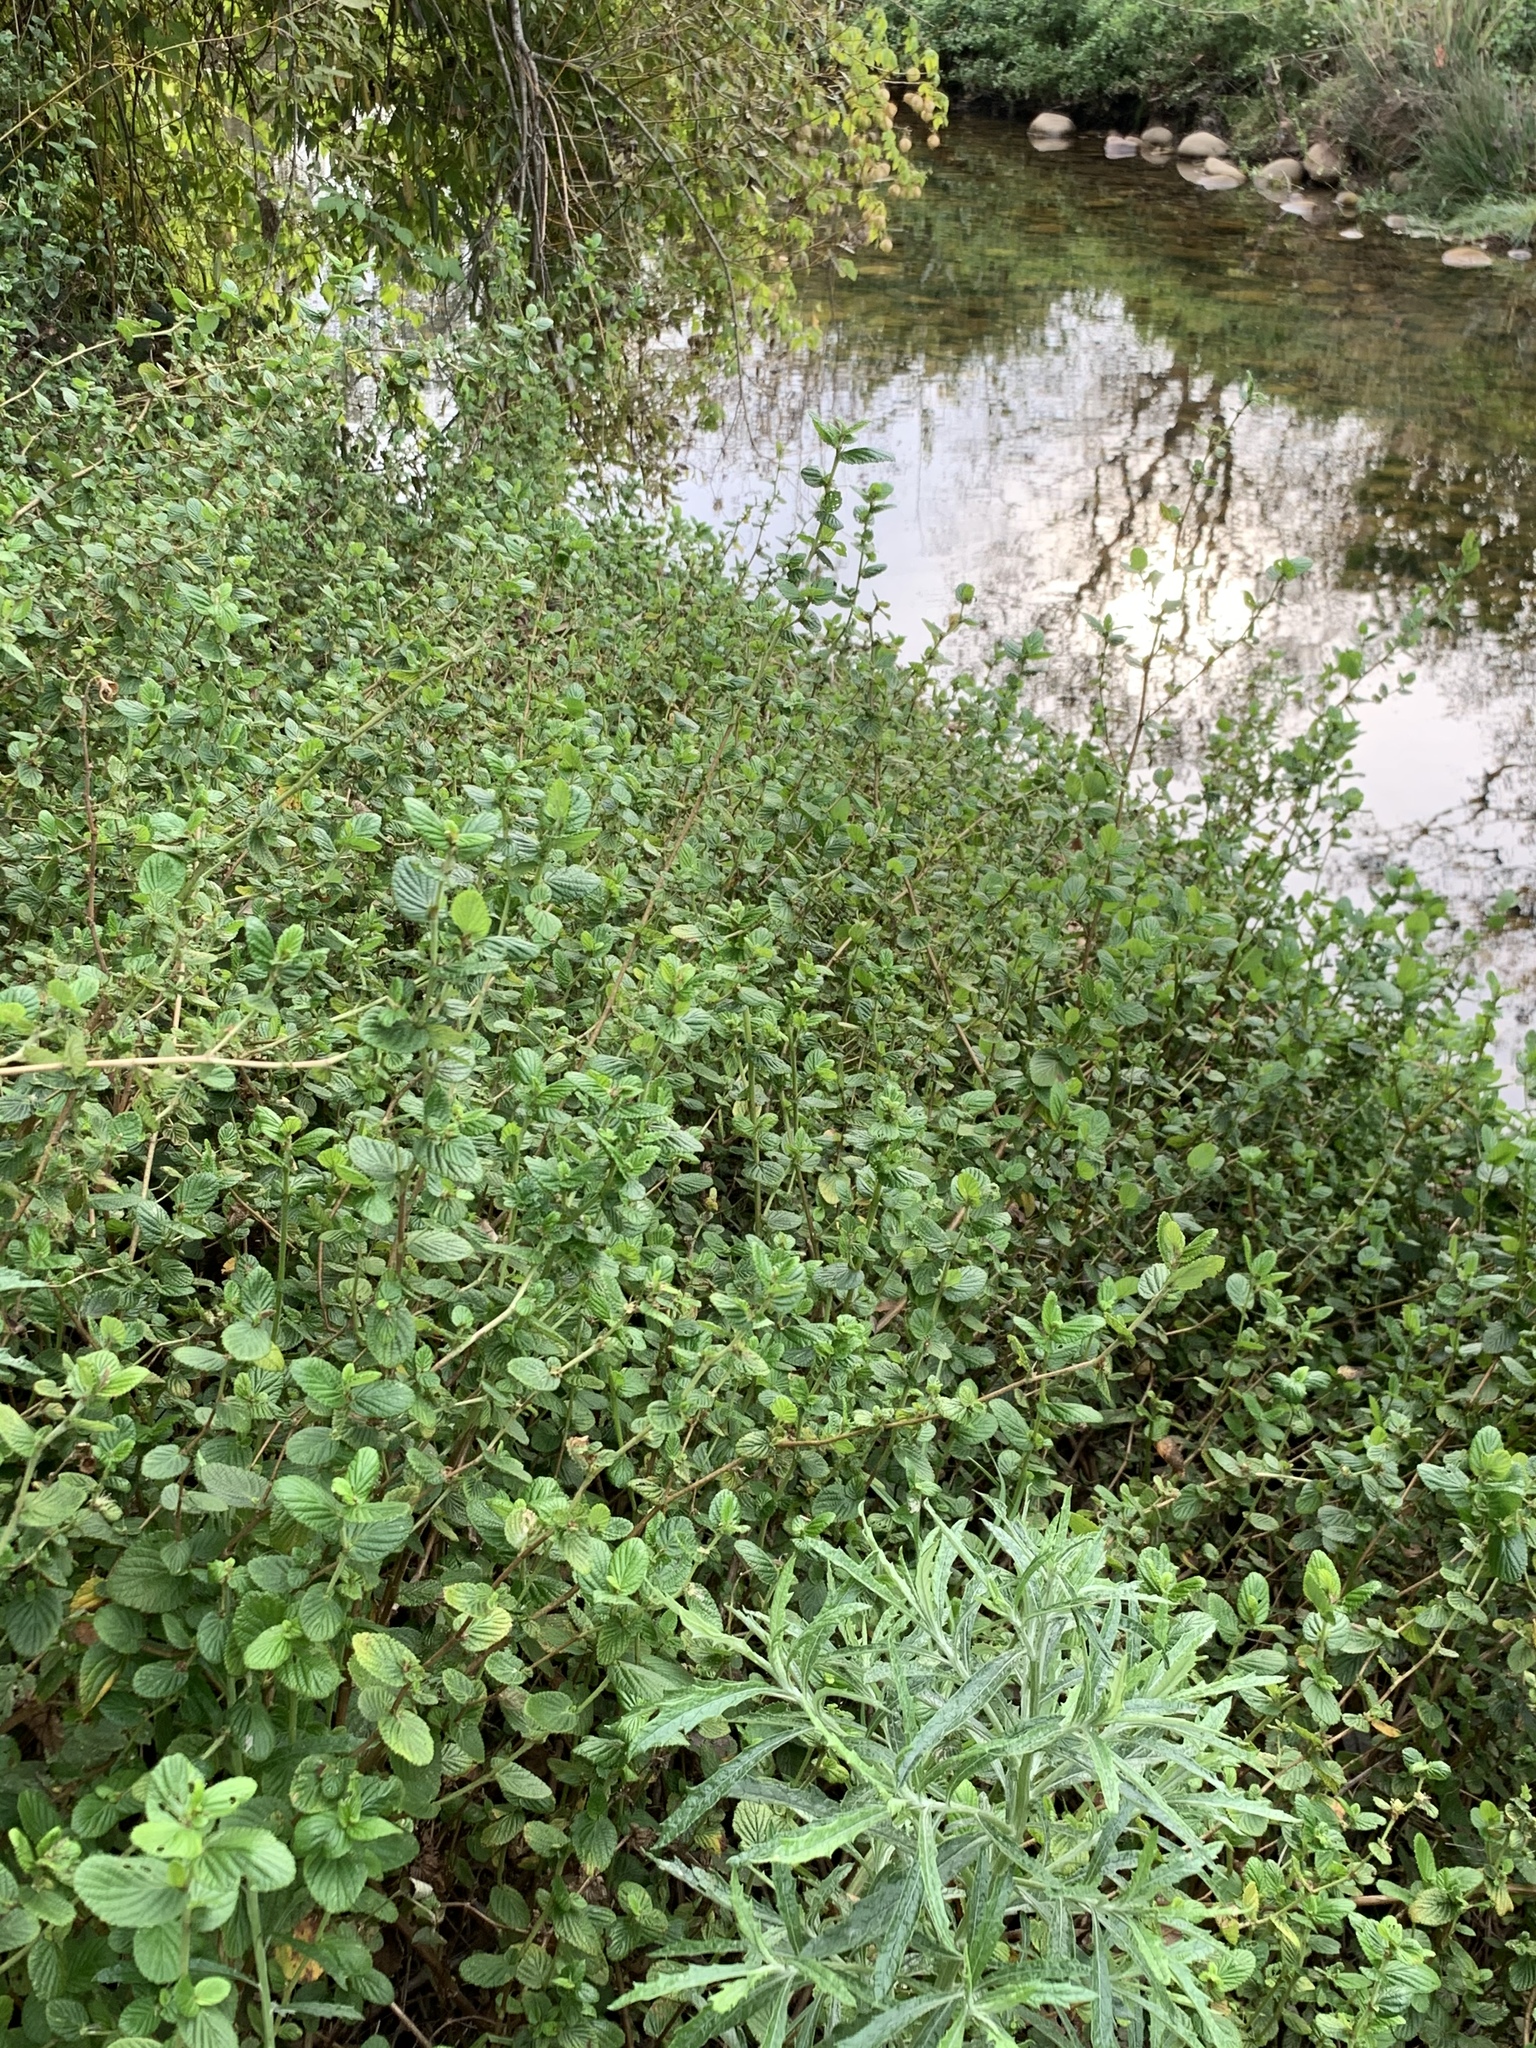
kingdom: Plantae
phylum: Tracheophyta
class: Magnoliopsida
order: Rosales
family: Rosaceae
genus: Cliffortia
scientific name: Cliffortia odorata
